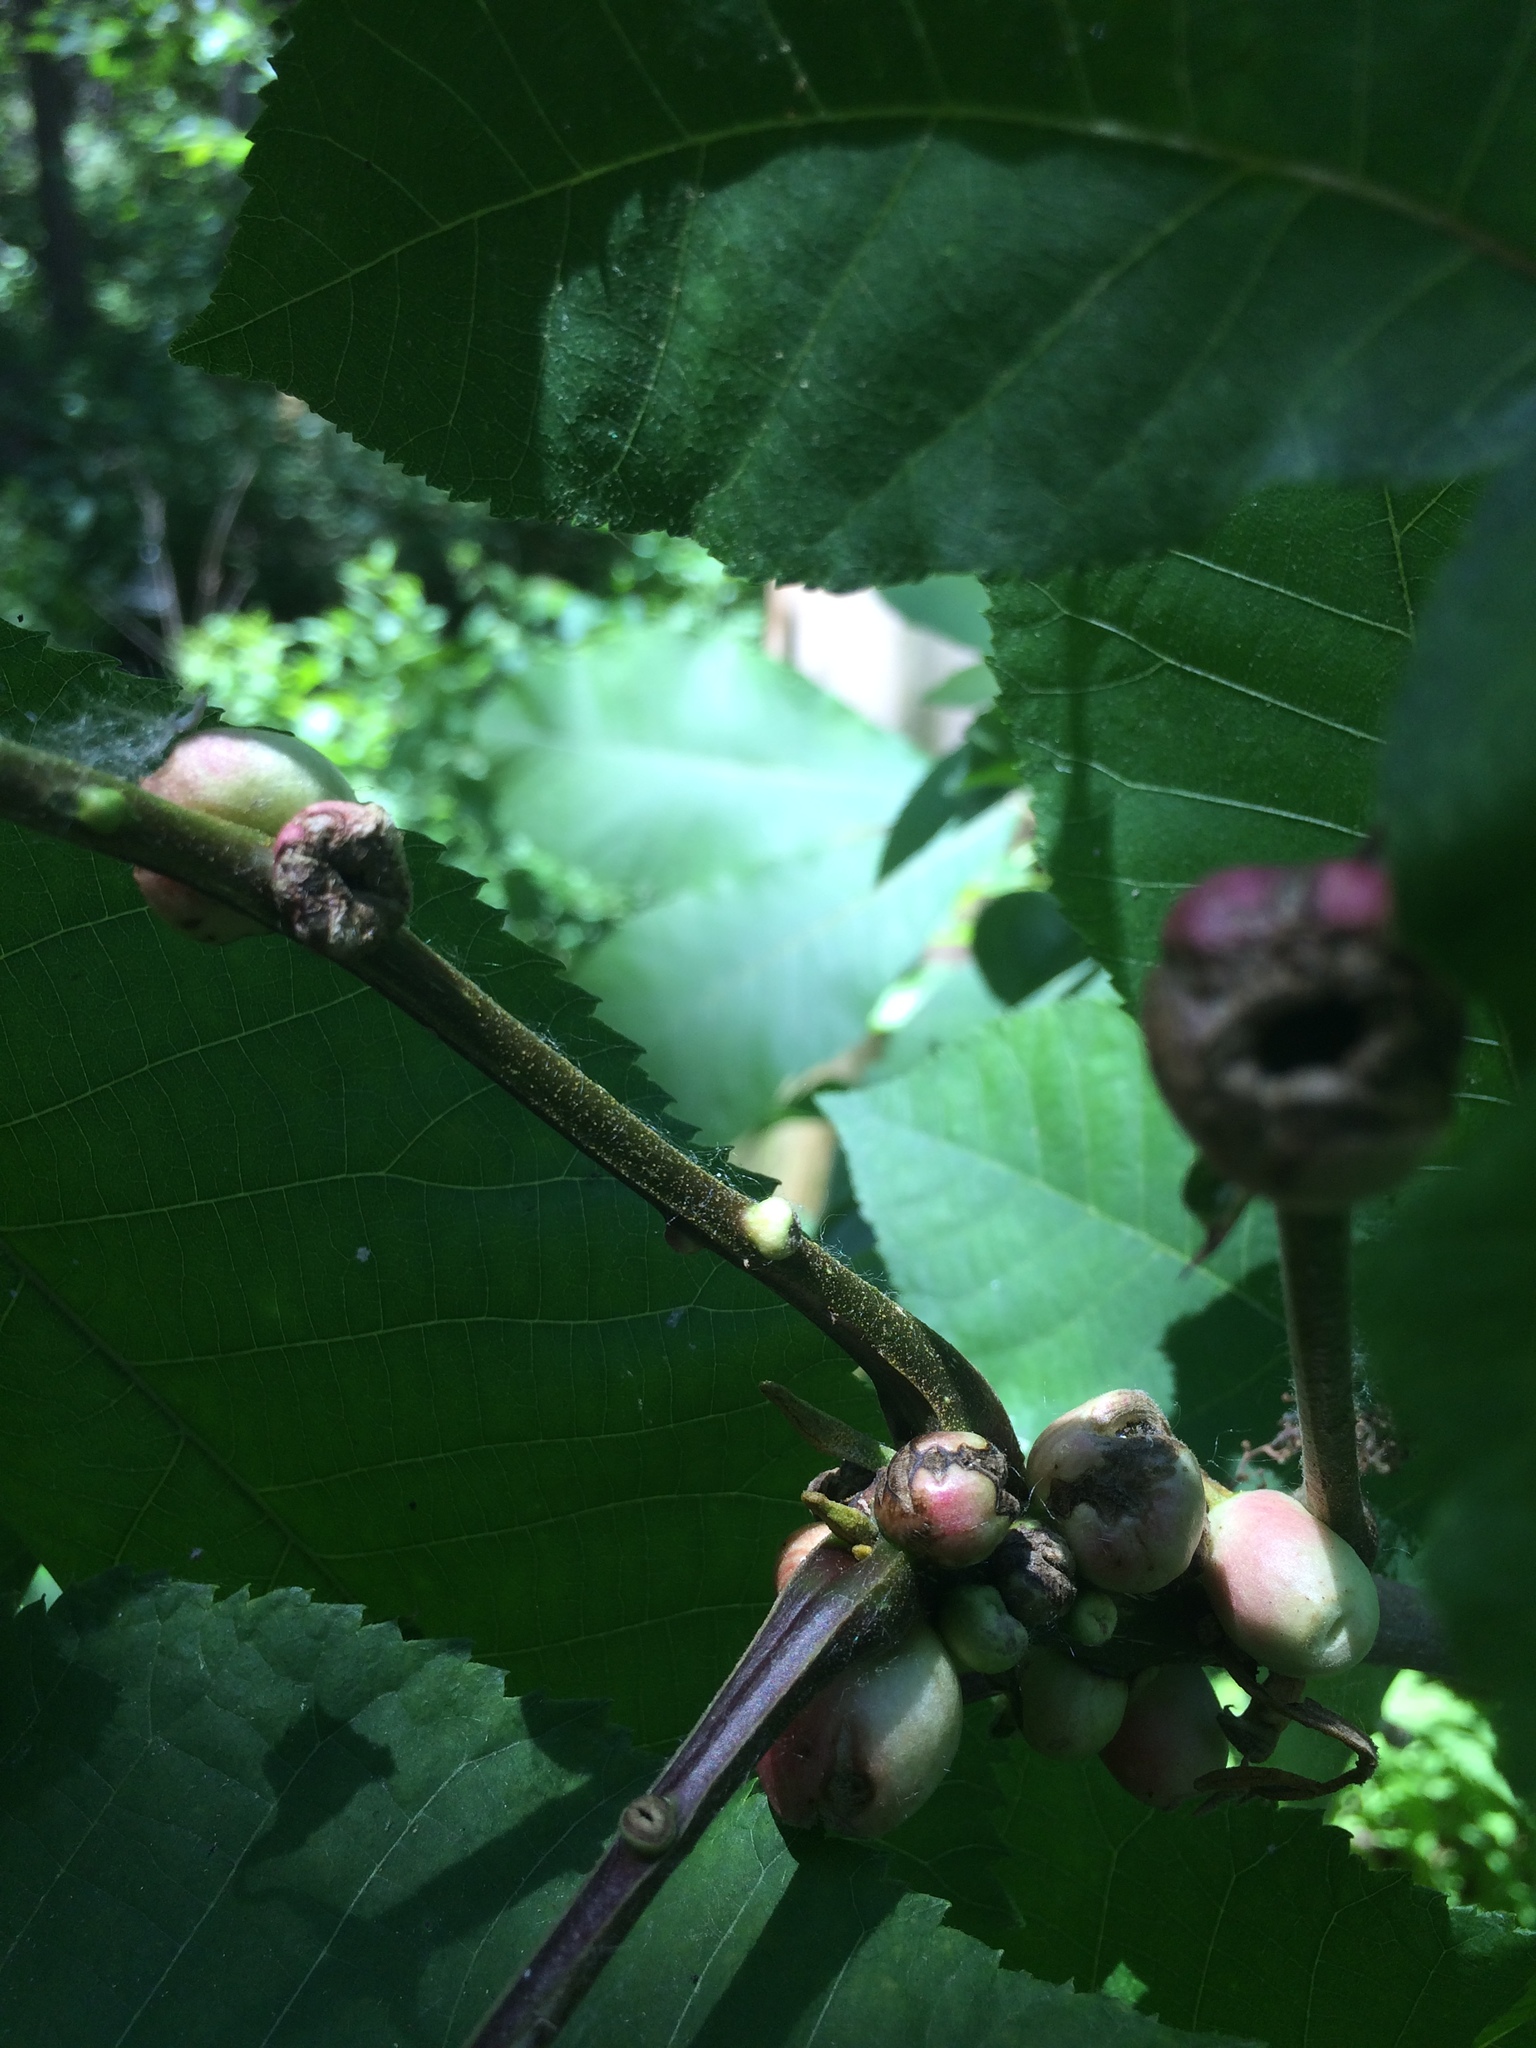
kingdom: Plantae
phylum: Tracheophyta
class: Magnoliopsida
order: Fagales
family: Juglandaceae
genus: Carya
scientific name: Carya cordiformis
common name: Bitternut hickory
